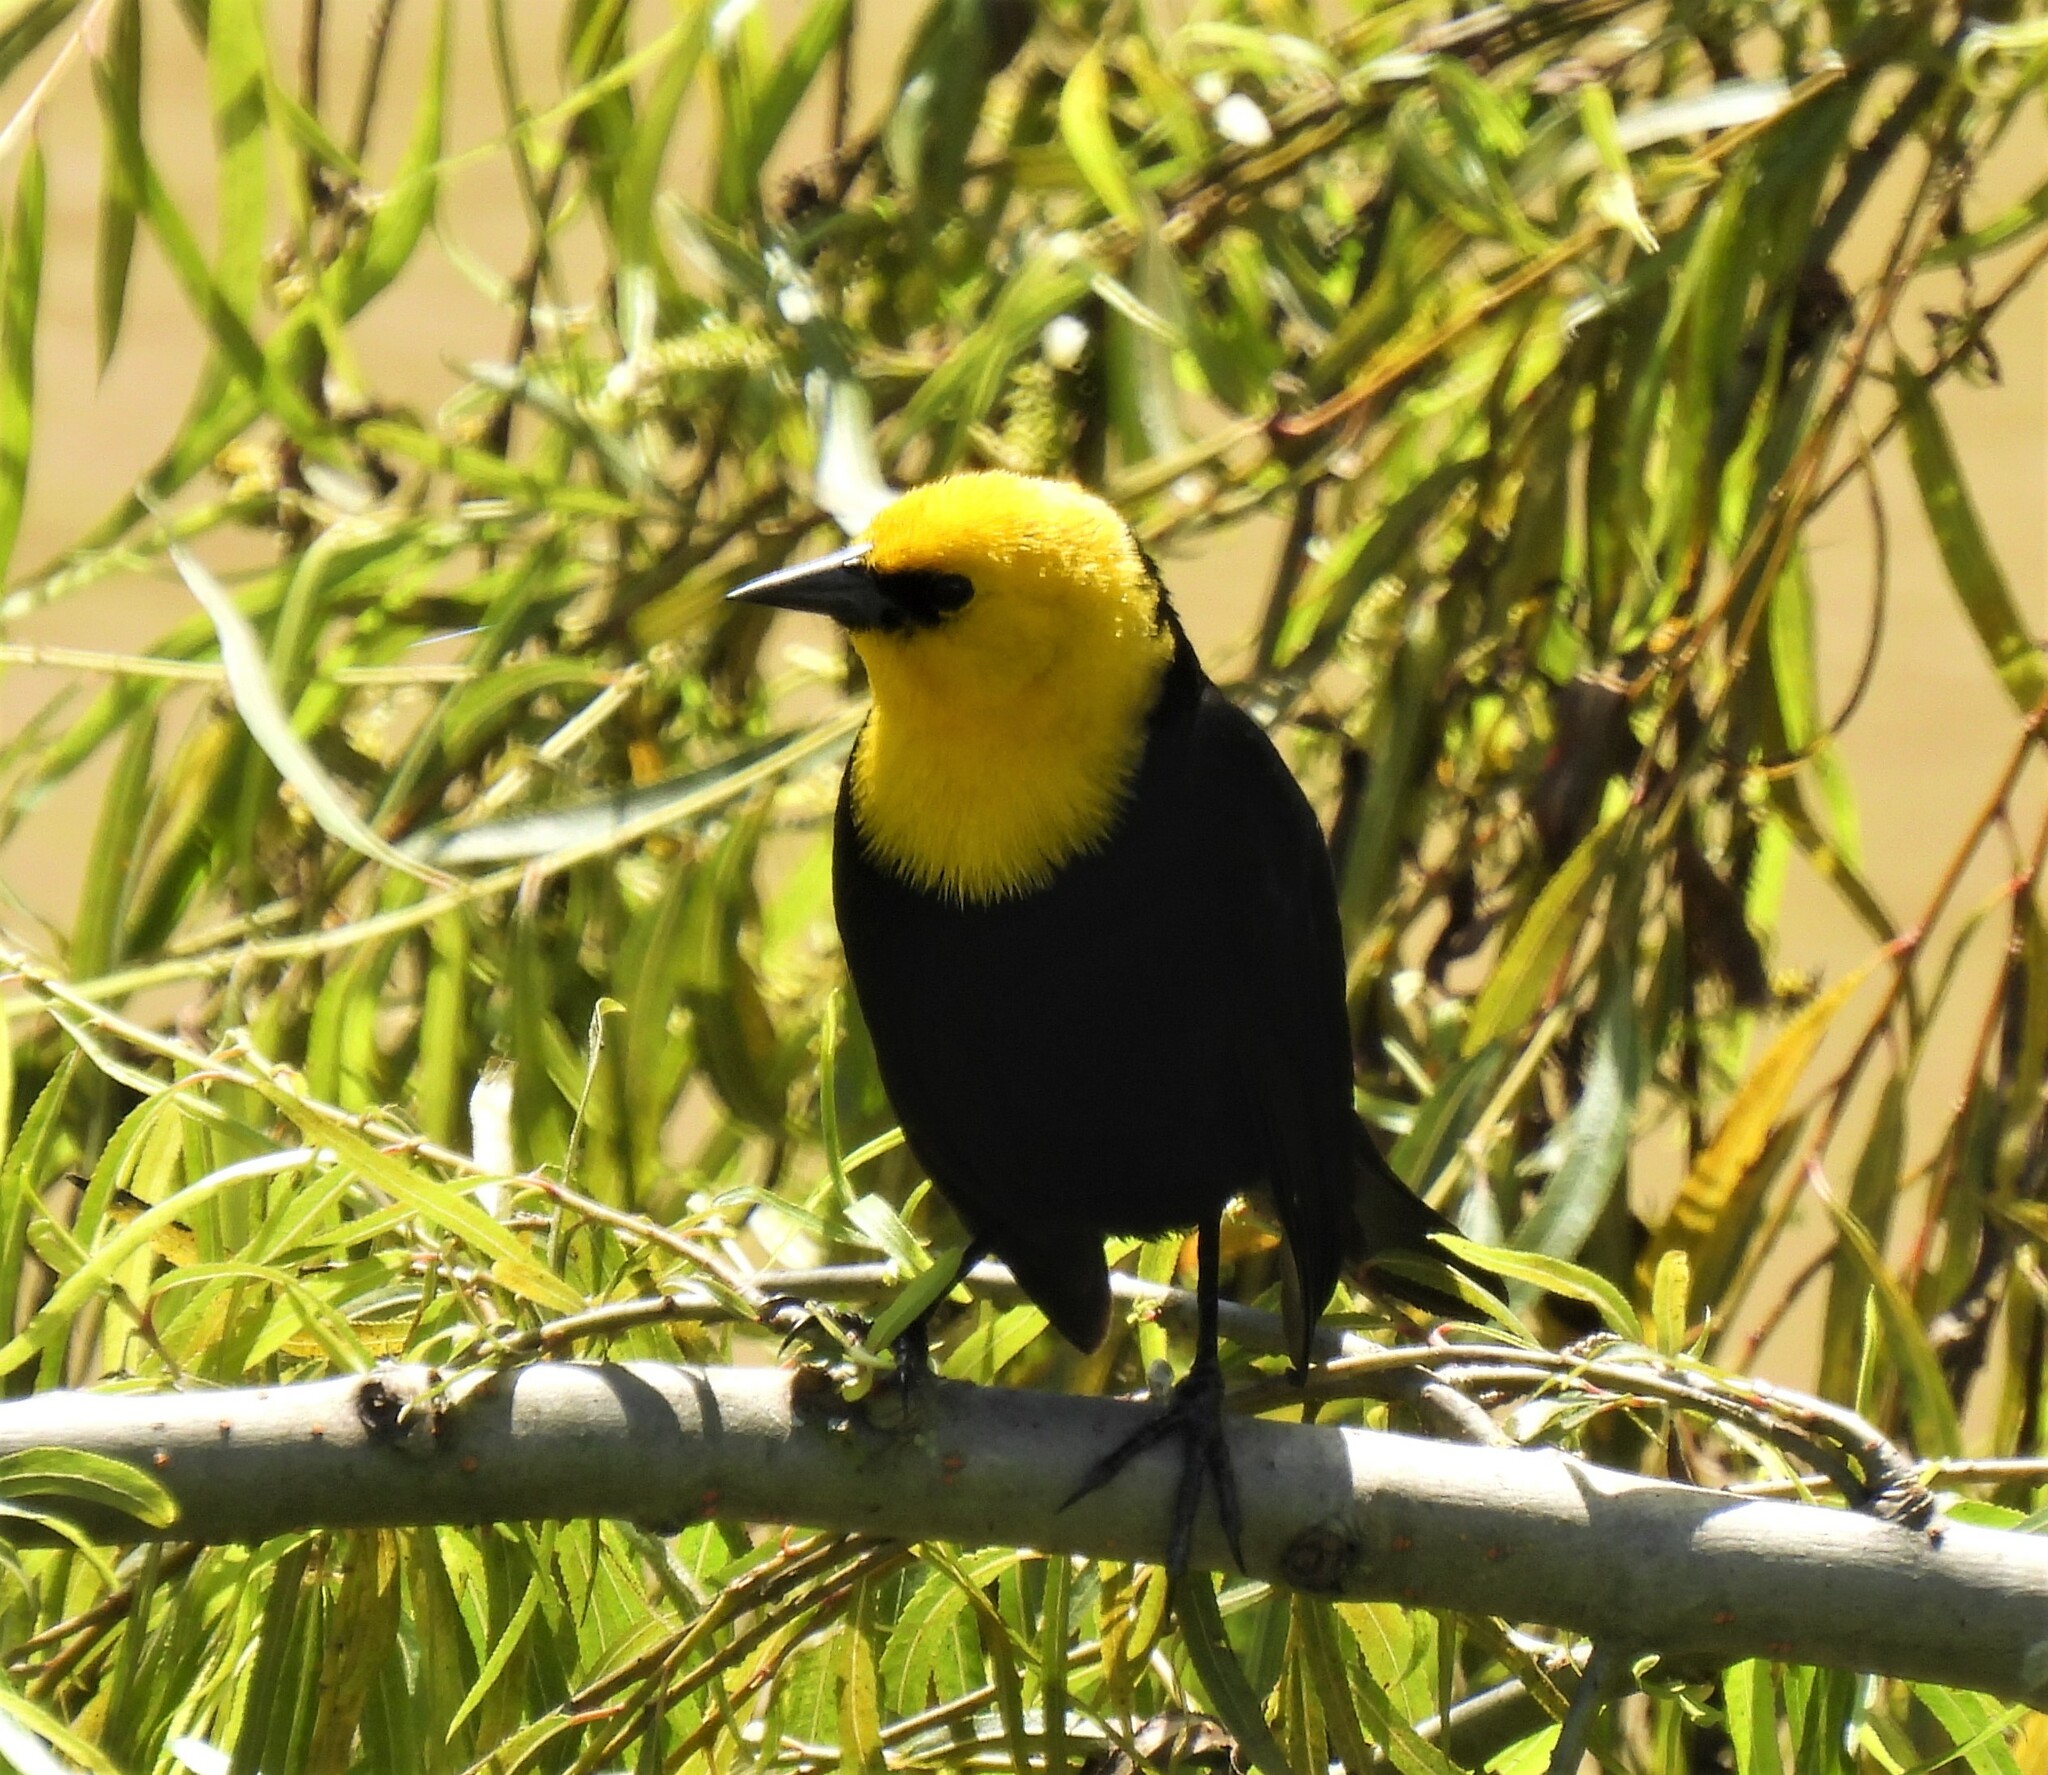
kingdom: Animalia
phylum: Chordata
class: Aves
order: Passeriformes
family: Icteridae
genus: Chrysomus
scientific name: Chrysomus icterocephalus
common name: Yellow-hooded blackbird
